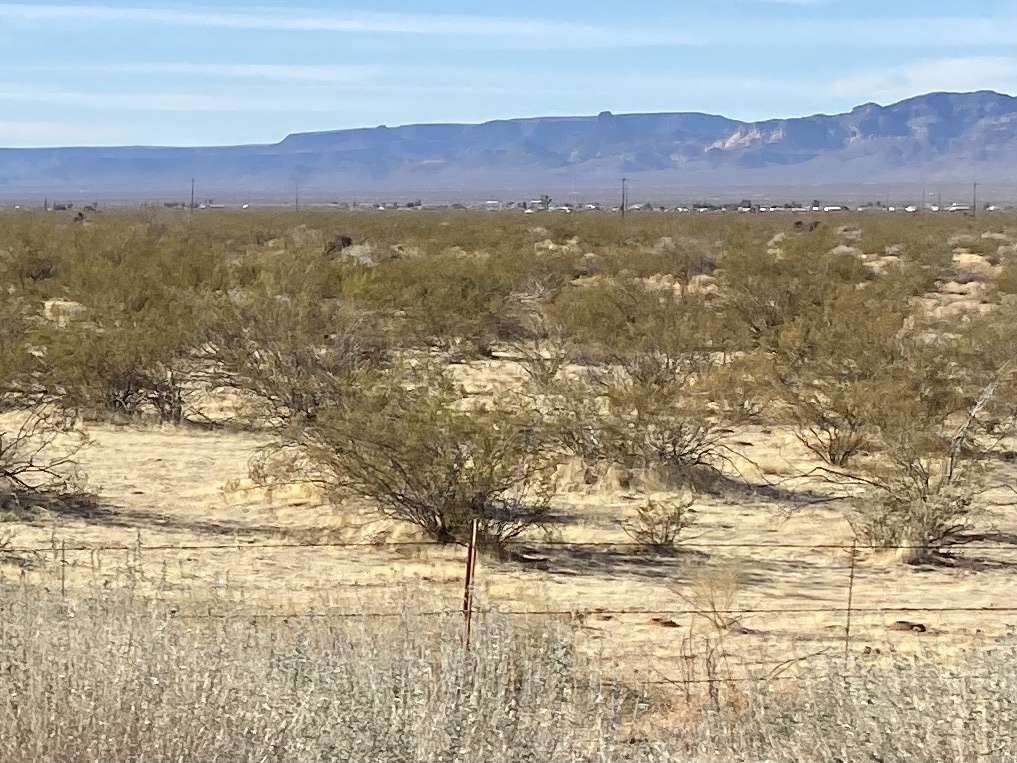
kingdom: Plantae
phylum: Tracheophyta
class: Magnoliopsida
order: Zygophyllales
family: Zygophyllaceae
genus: Larrea
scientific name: Larrea tridentata
